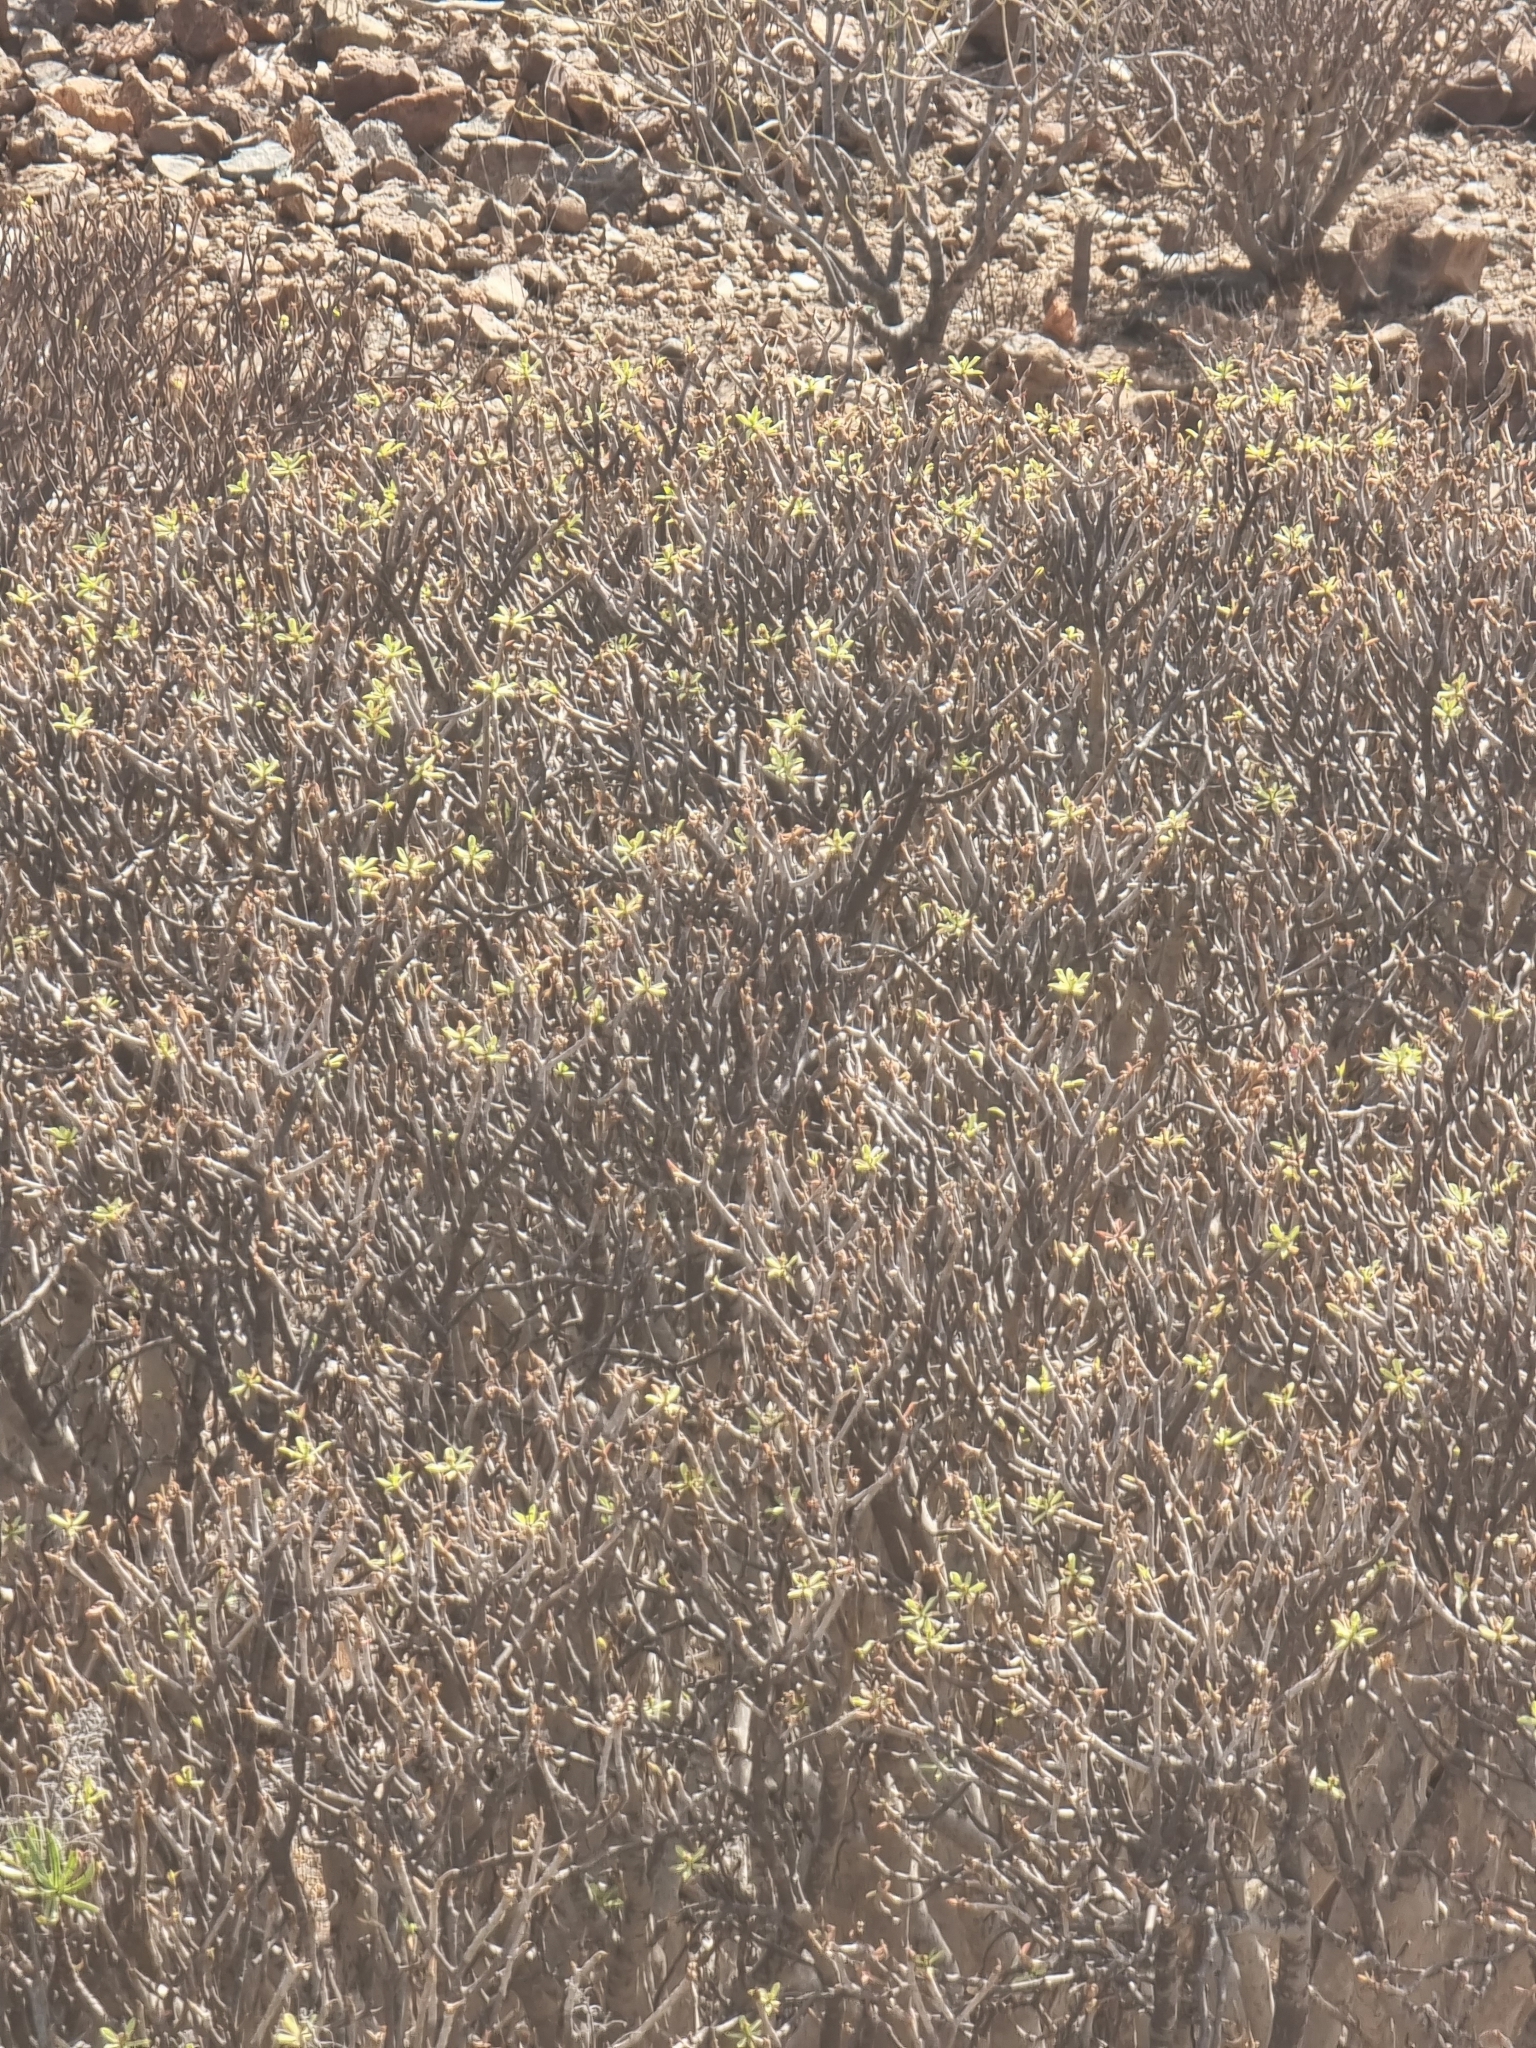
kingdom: Plantae
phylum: Tracheophyta
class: Magnoliopsida
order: Malpighiales
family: Euphorbiaceae
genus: Euphorbia
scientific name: Euphorbia balsamifera
